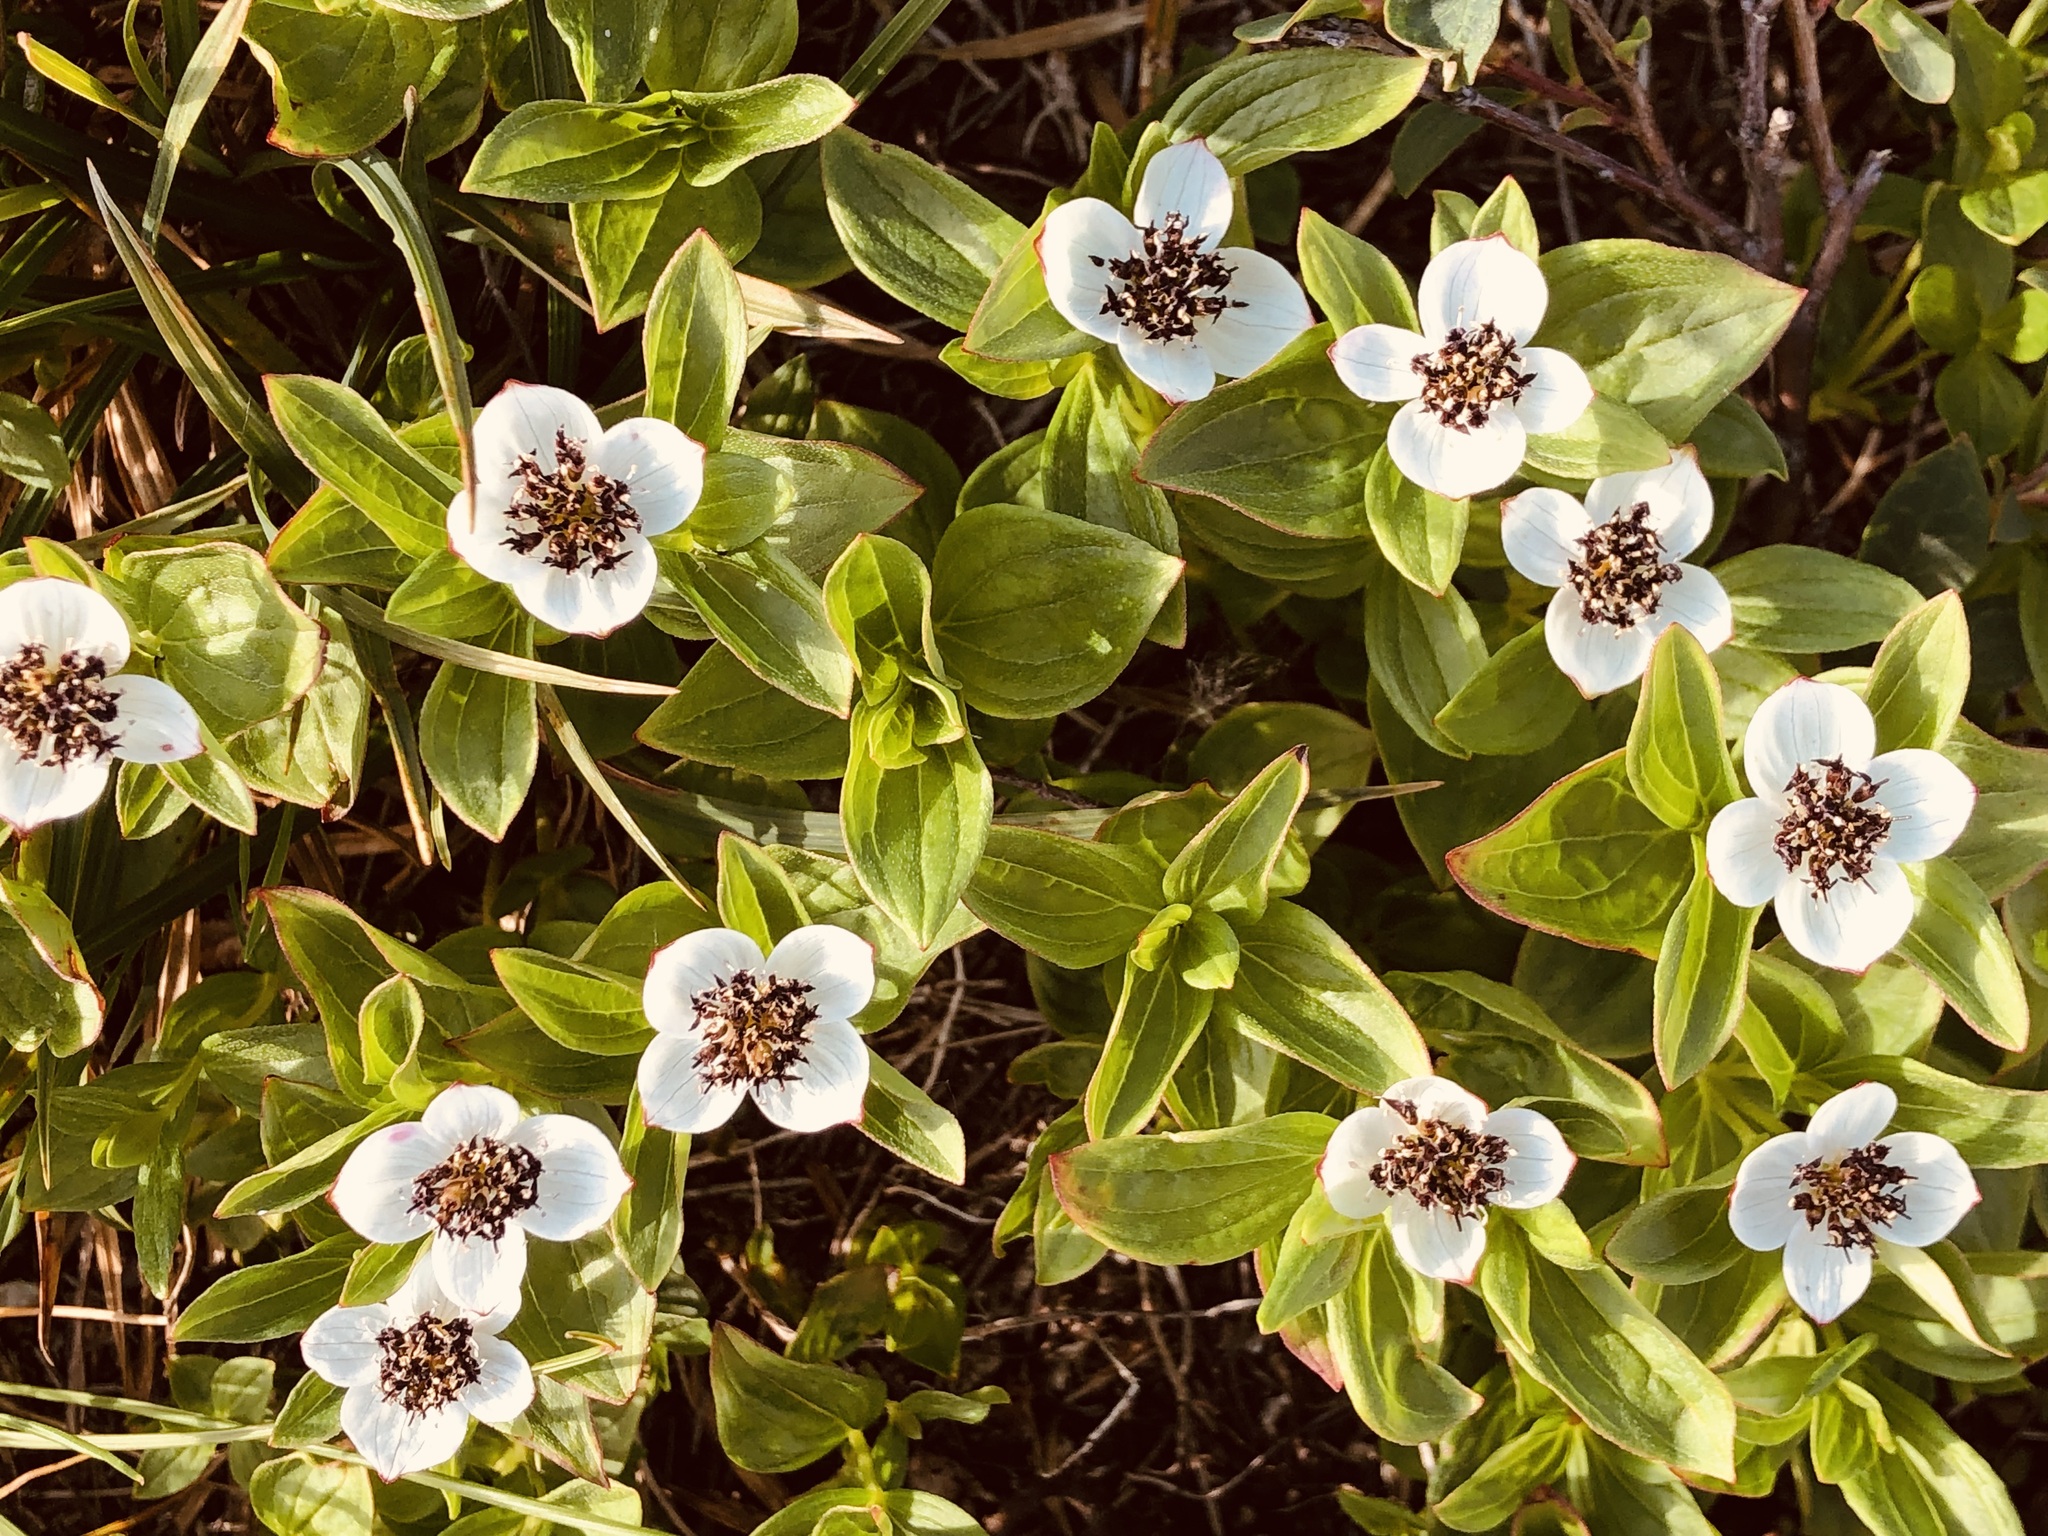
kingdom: Plantae
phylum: Tracheophyta
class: Magnoliopsida
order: Cornales
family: Cornaceae
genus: Cornus
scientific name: Cornus suecica
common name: Dwarf cornel
